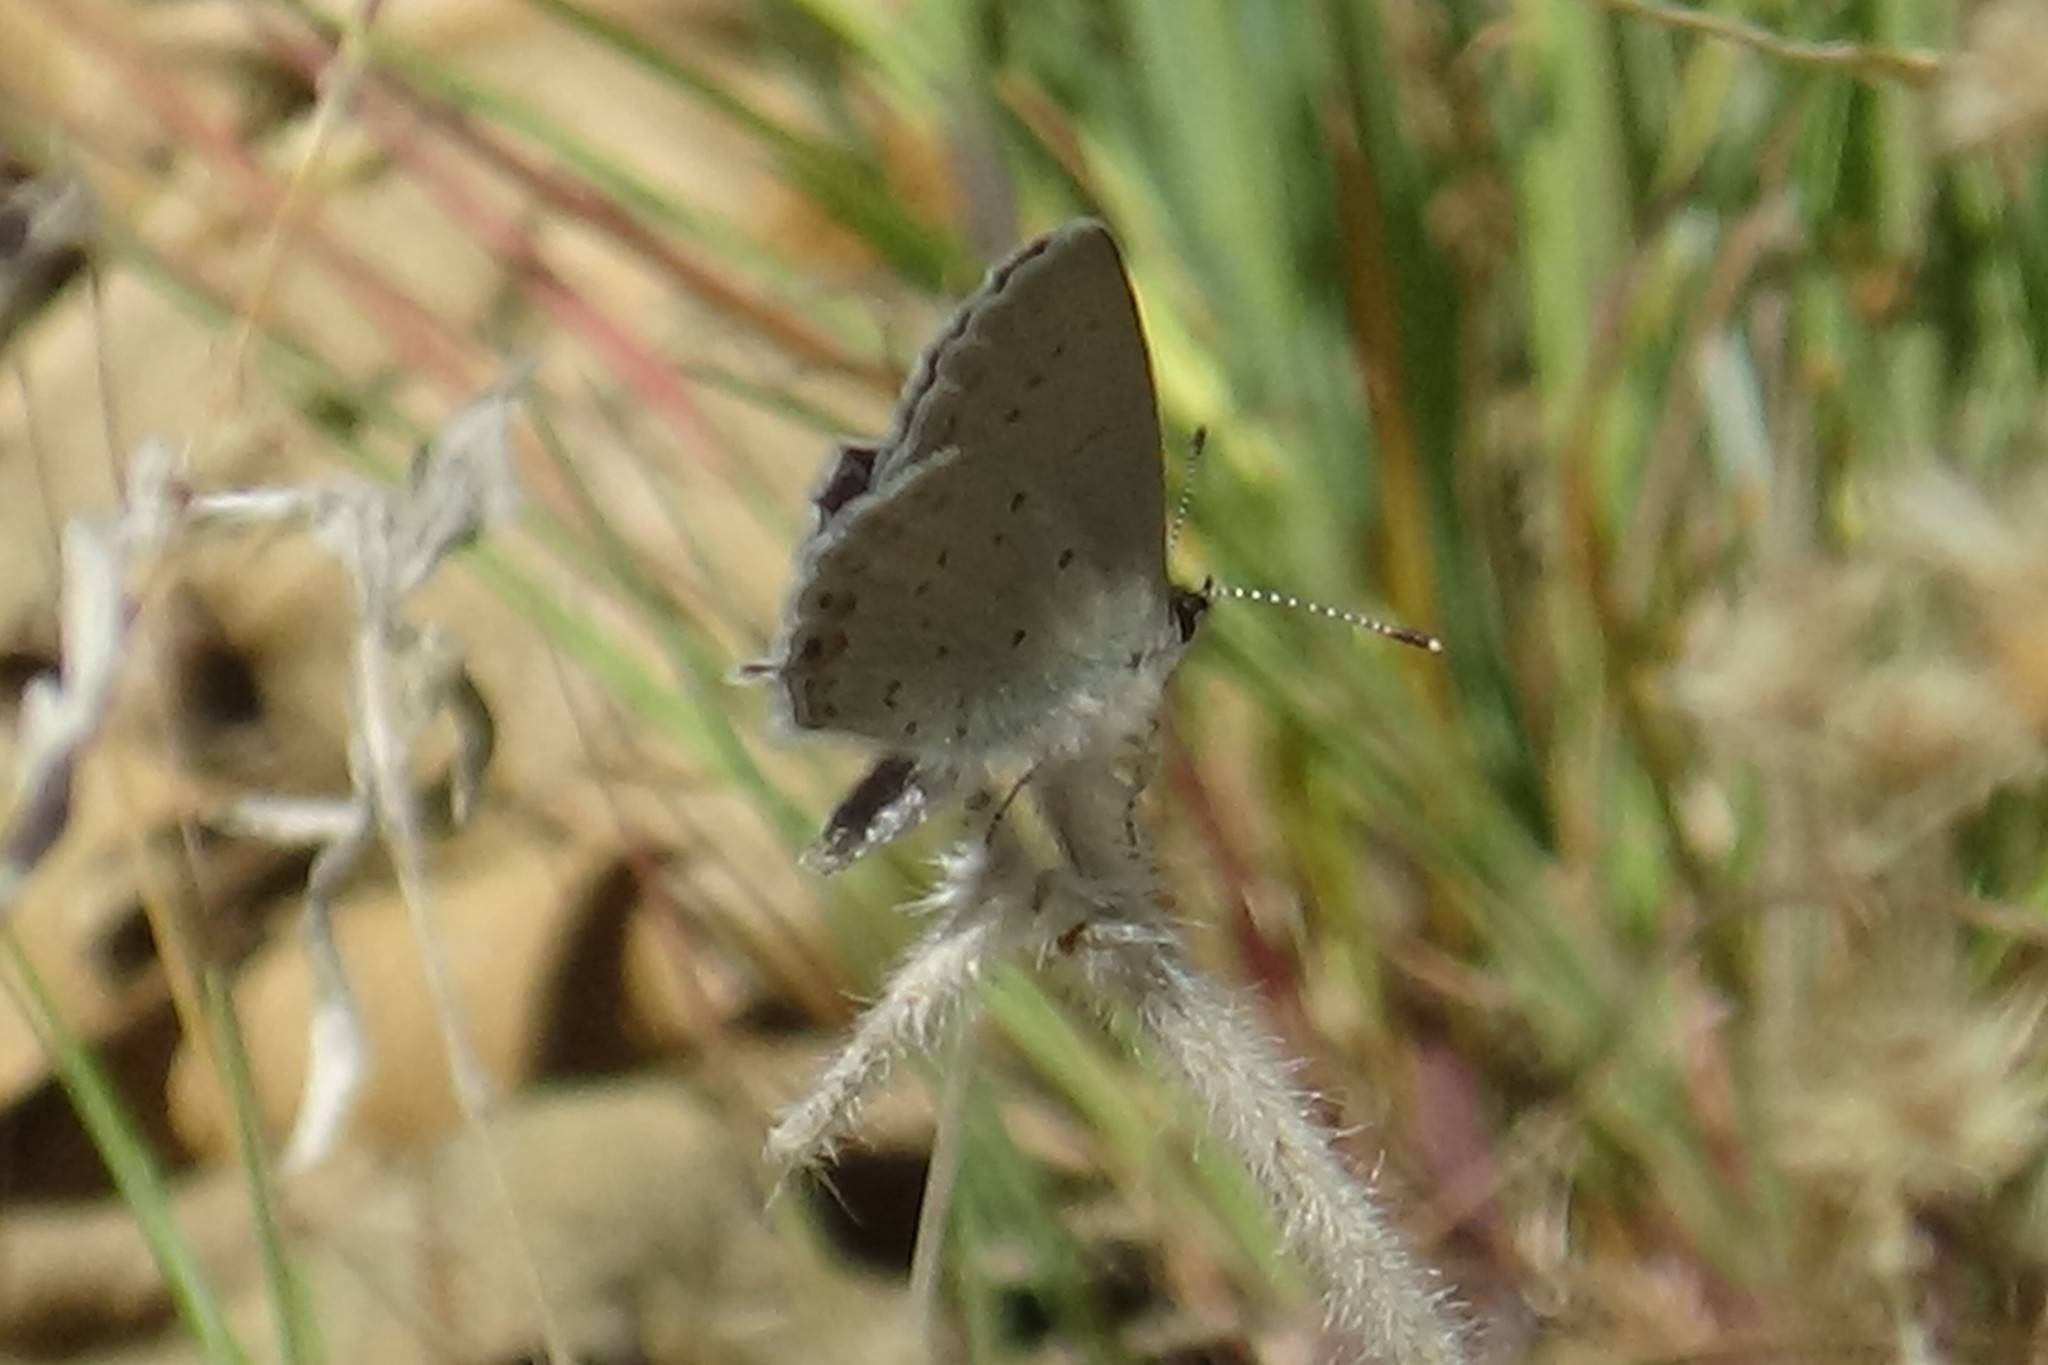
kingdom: Animalia
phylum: Arthropoda
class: Insecta
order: Lepidoptera
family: Lycaenidae
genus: Elkalyce
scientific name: Elkalyce amyntula
